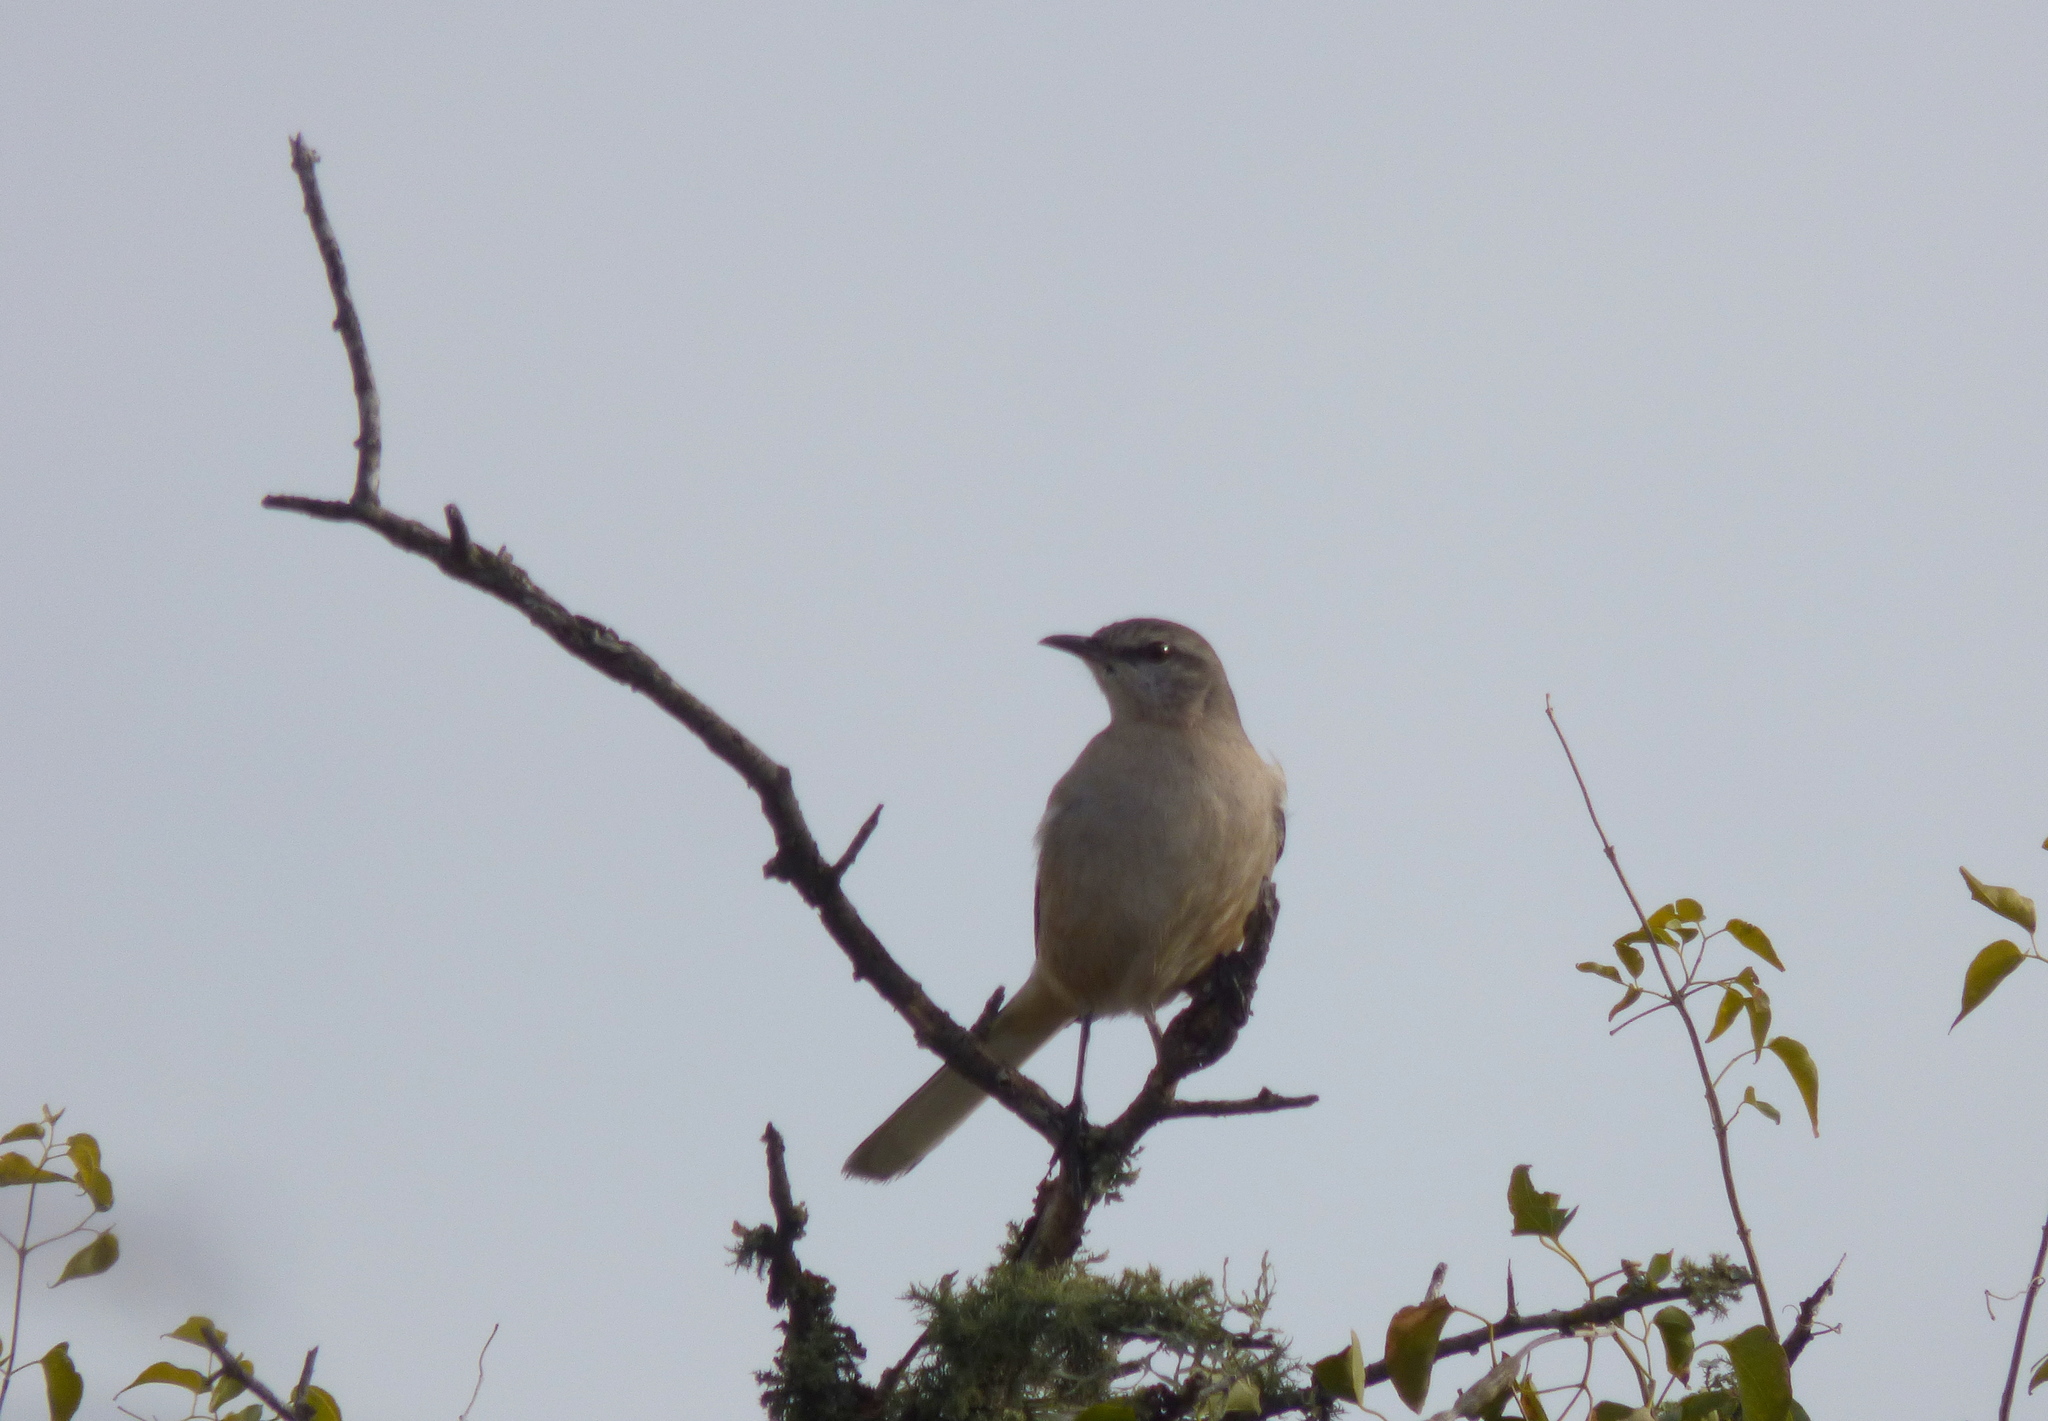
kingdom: Animalia
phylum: Chordata
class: Aves
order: Passeriformes
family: Mimidae
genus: Mimus
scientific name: Mimus triurus
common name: White-banded mockingbird
